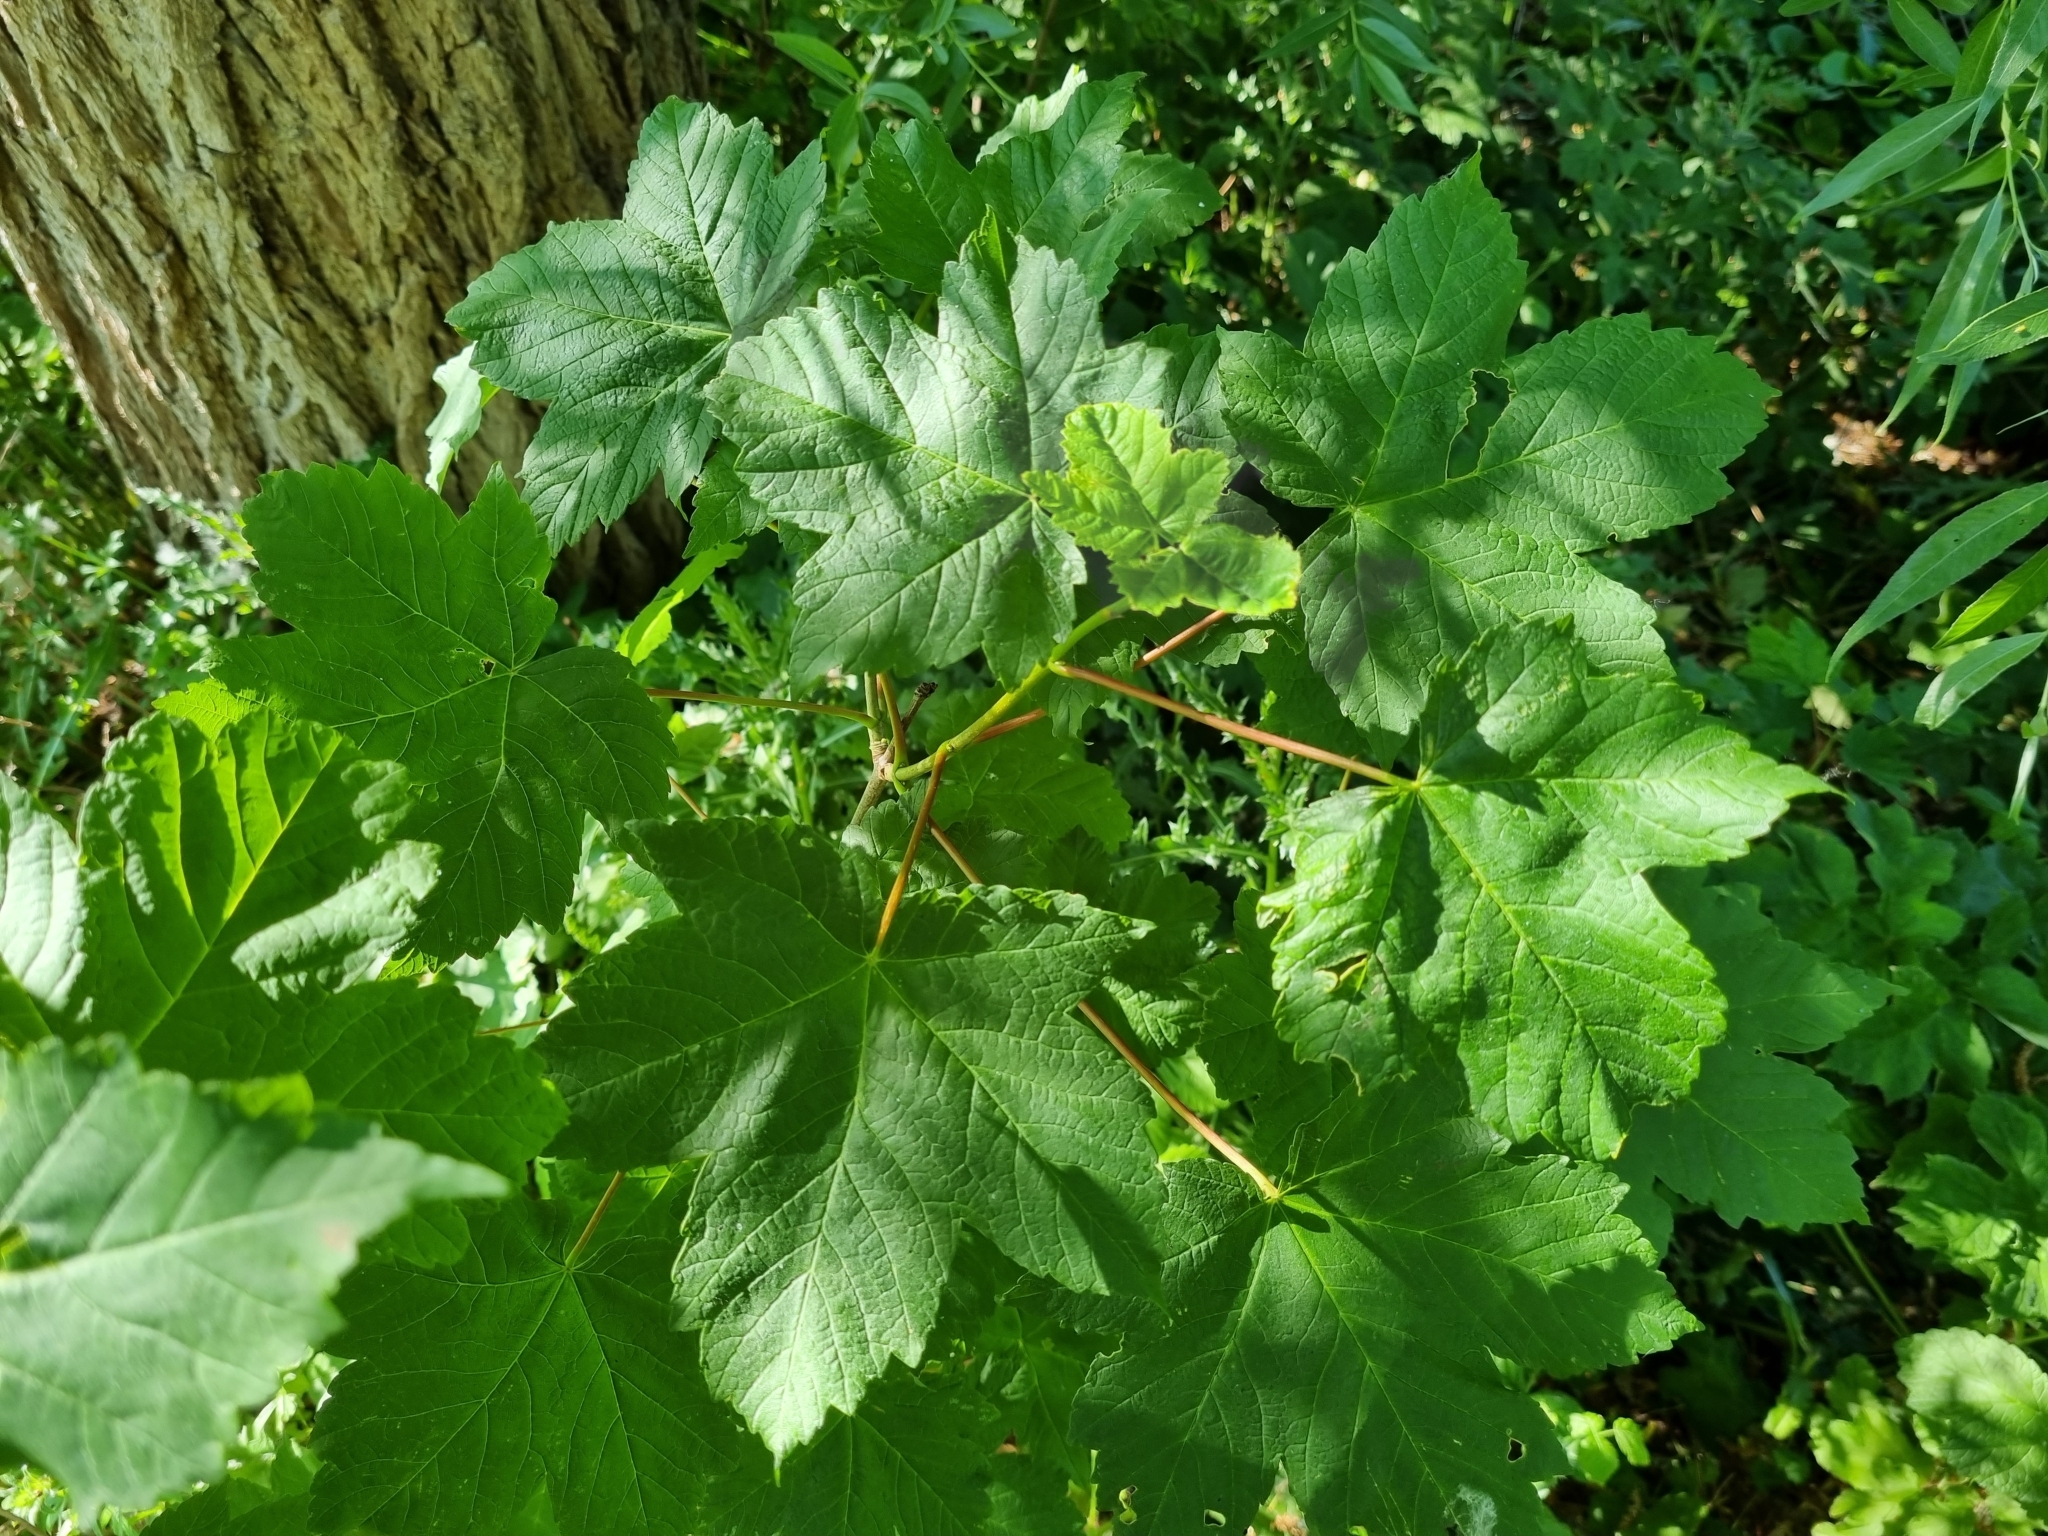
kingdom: Plantae
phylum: Tracheophyta
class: Magnoliopsida
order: Sapindales
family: Sapindaceae
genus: Acer
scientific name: Acer pseudoplatanus
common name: Sycamore
